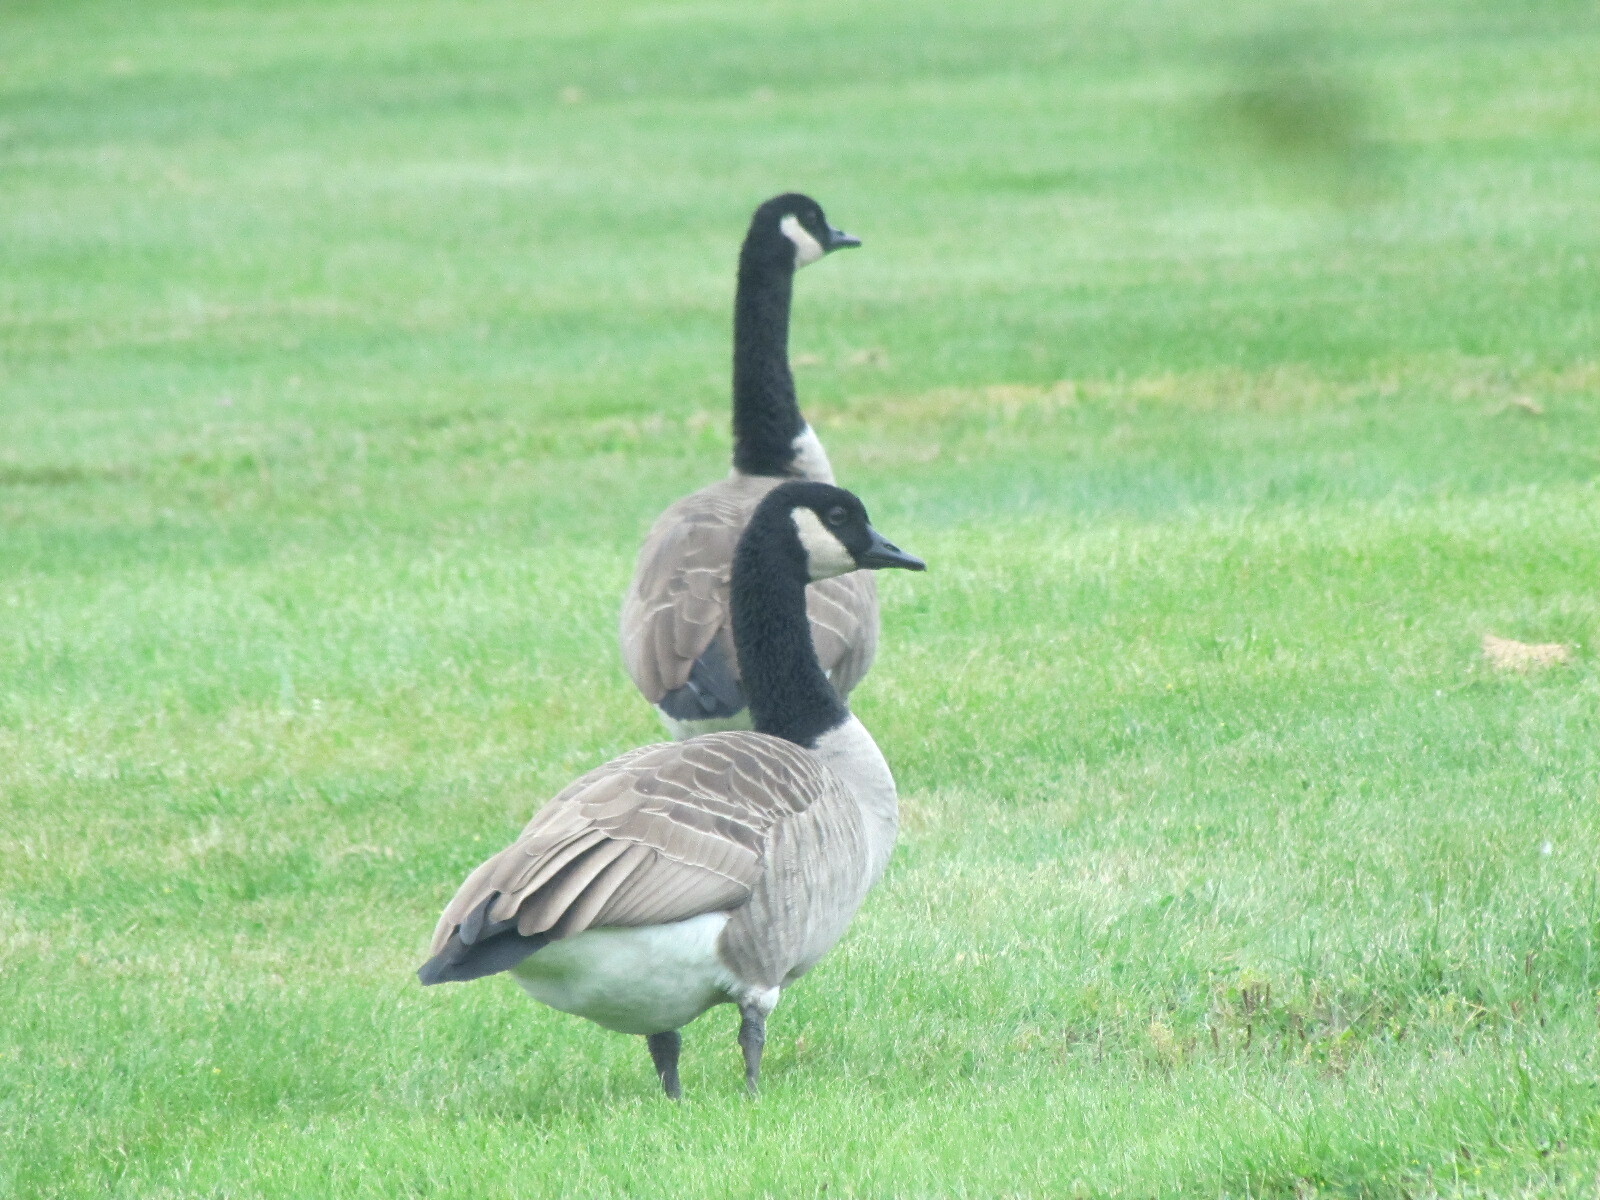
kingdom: Animalia
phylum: Chordata
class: Aves
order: Anseriformes
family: Anatidae
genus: Branta
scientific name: Branta canadensis
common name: Canada goose
